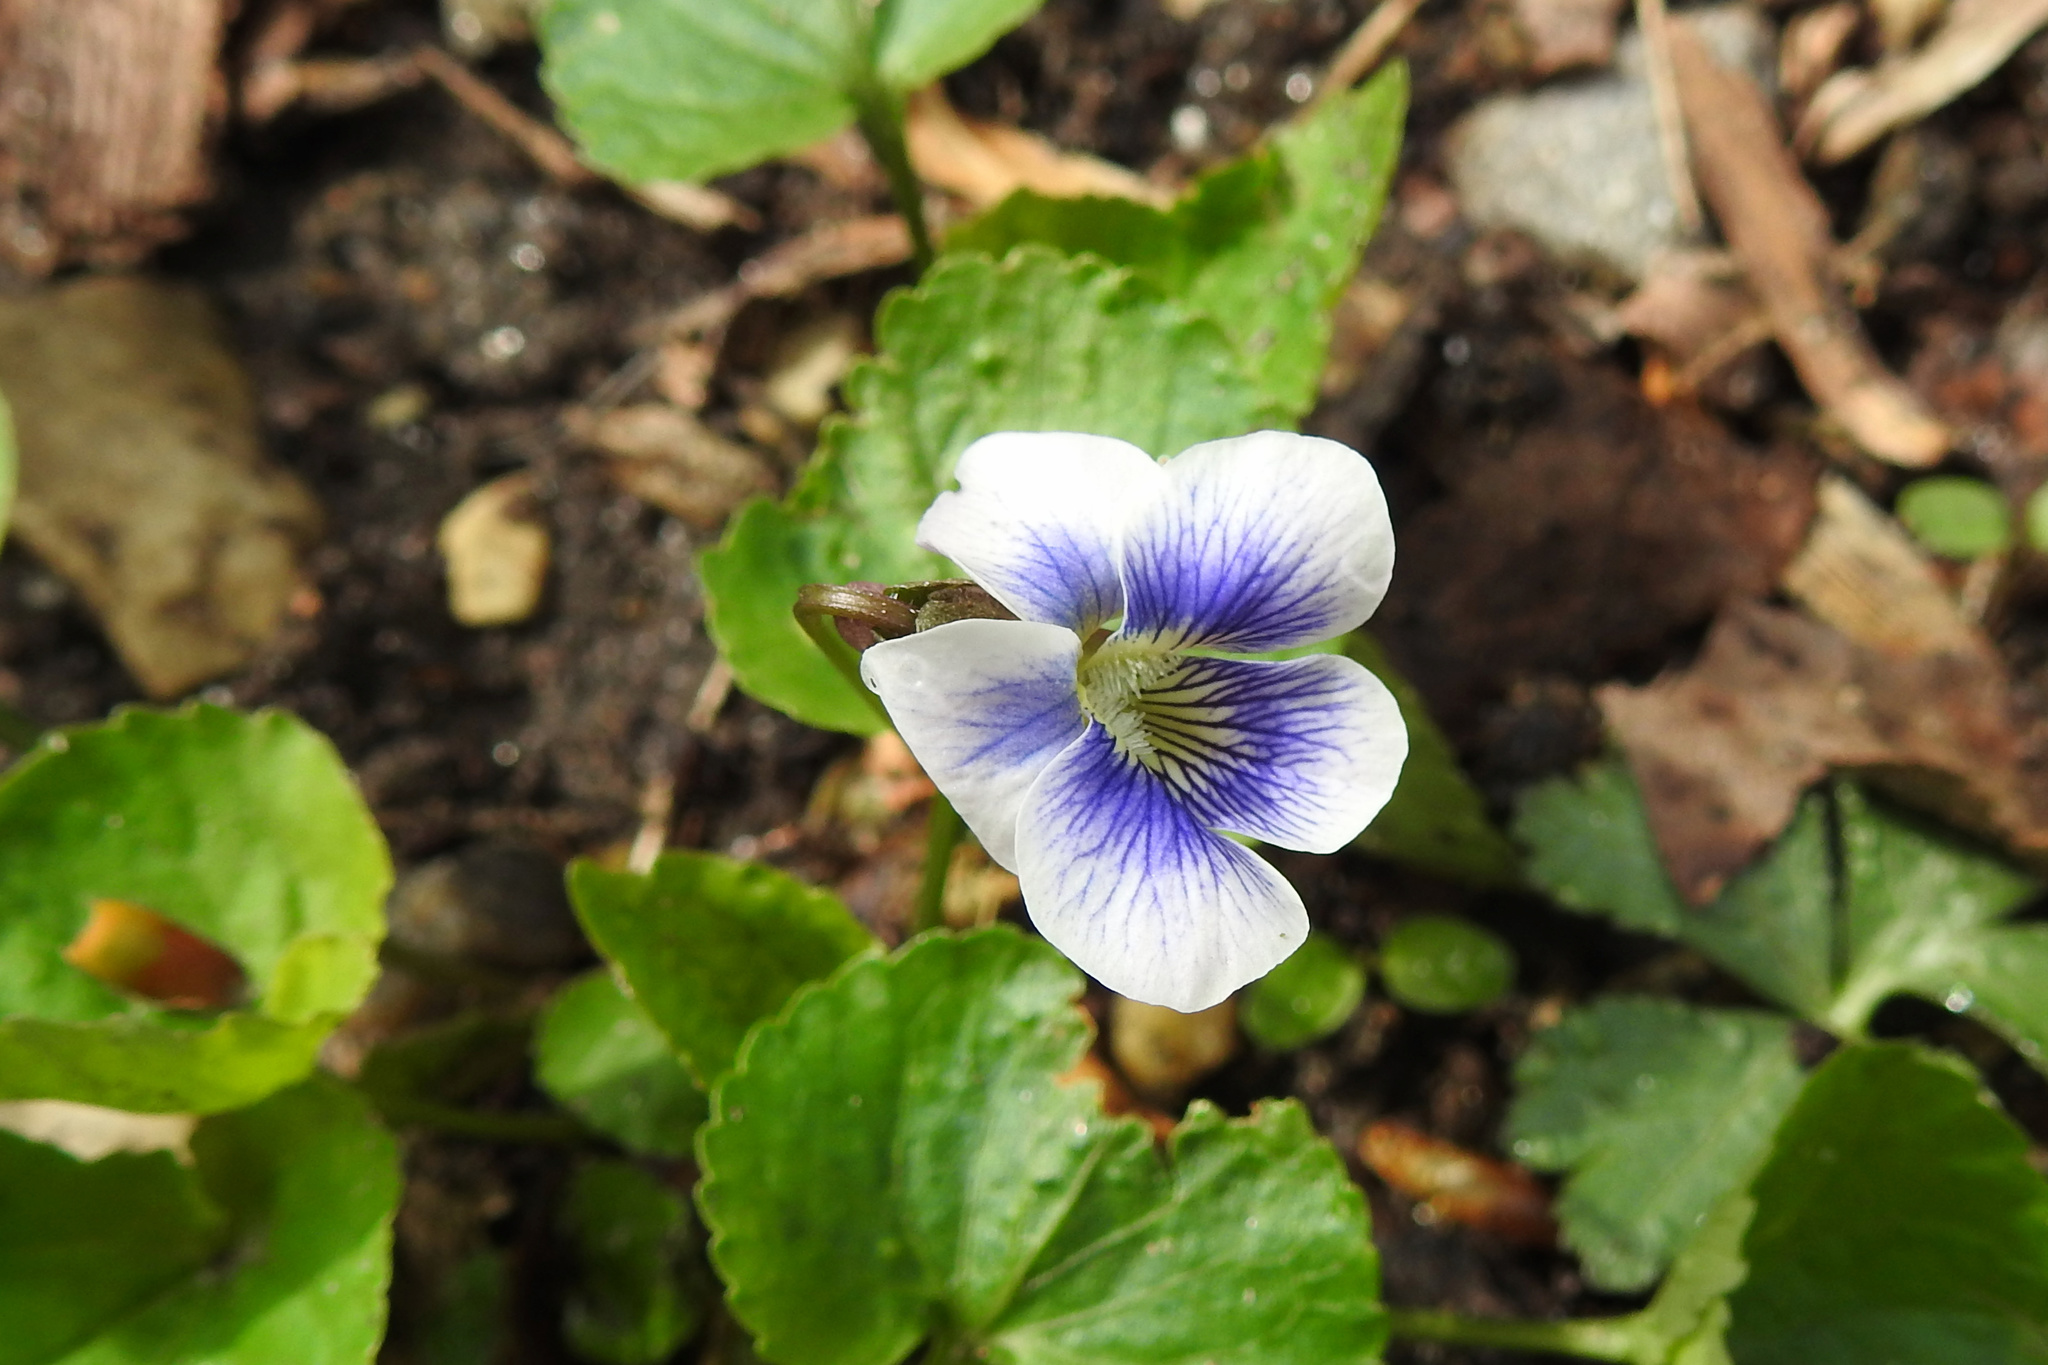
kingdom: Plantae
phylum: Tracheophyta
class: Magnoliopsida
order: Malpighiales
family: Violaceae
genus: Viola
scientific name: Viola sororia
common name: Dooryard violet
